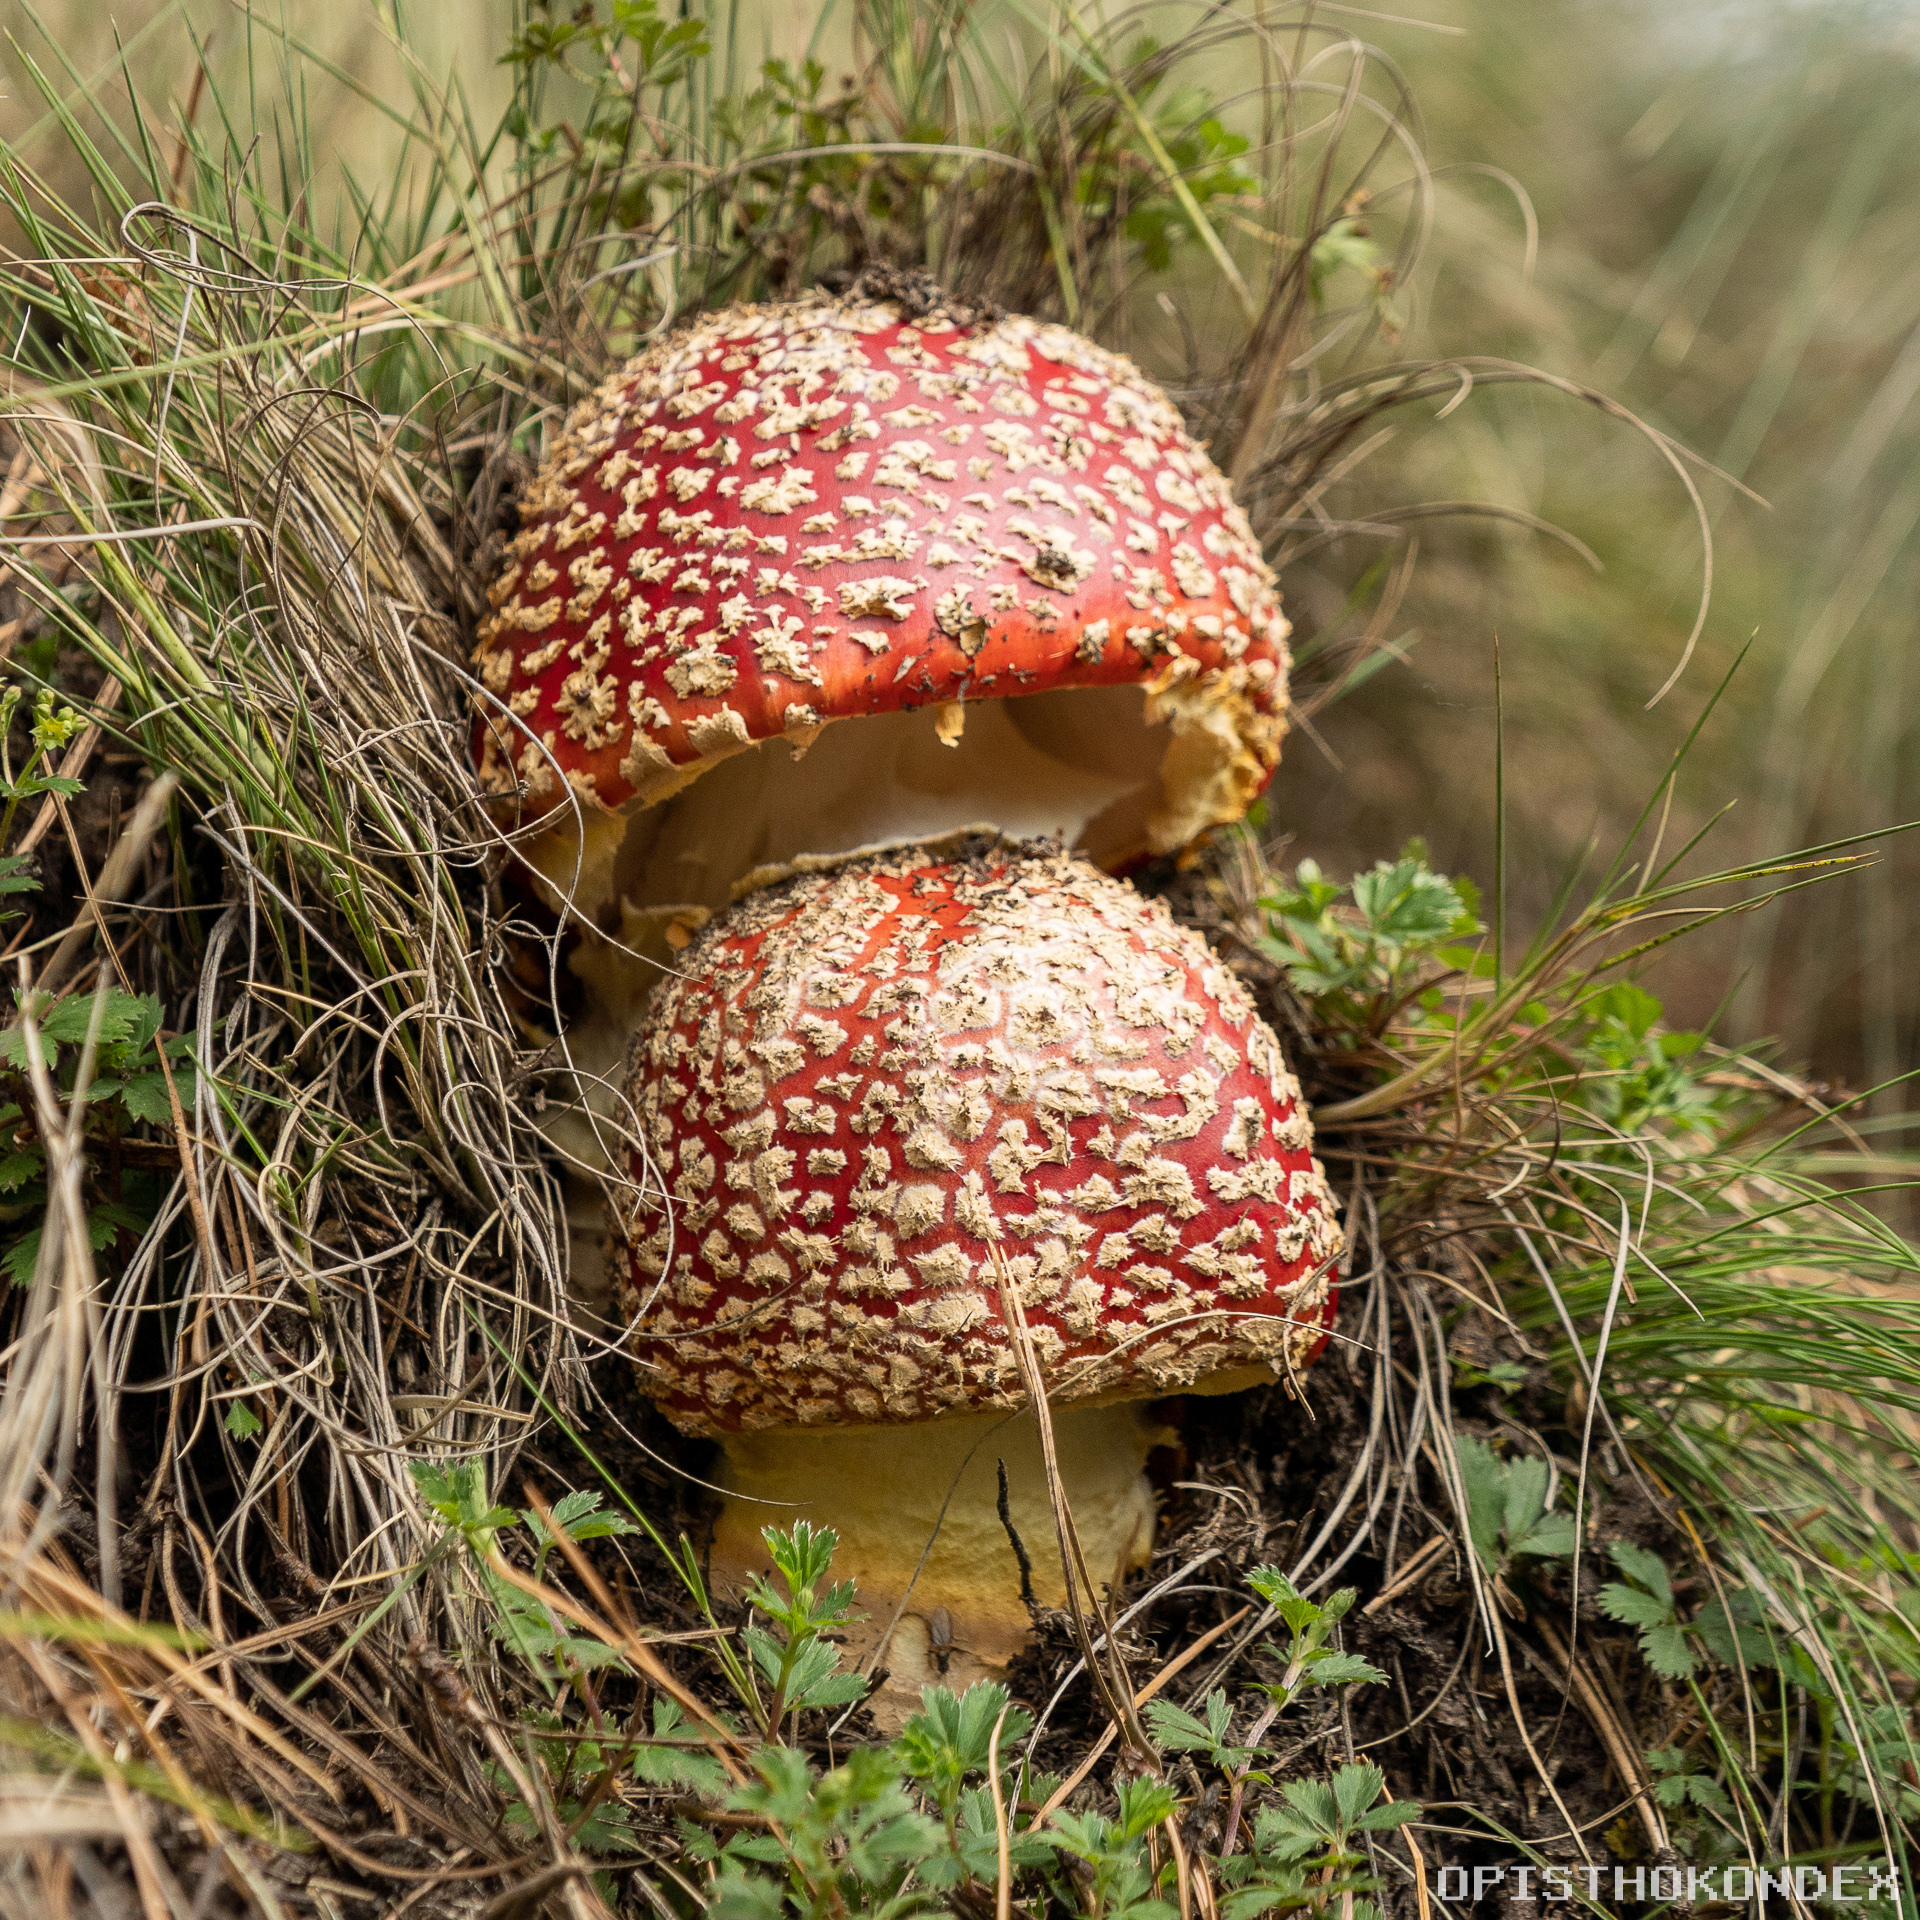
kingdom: Fungi
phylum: Basidiomycota
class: Agaricomycetes
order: Agaricales
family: Amanitaceae
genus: Amanita
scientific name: Amanita muscaria
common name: Fly agaric
